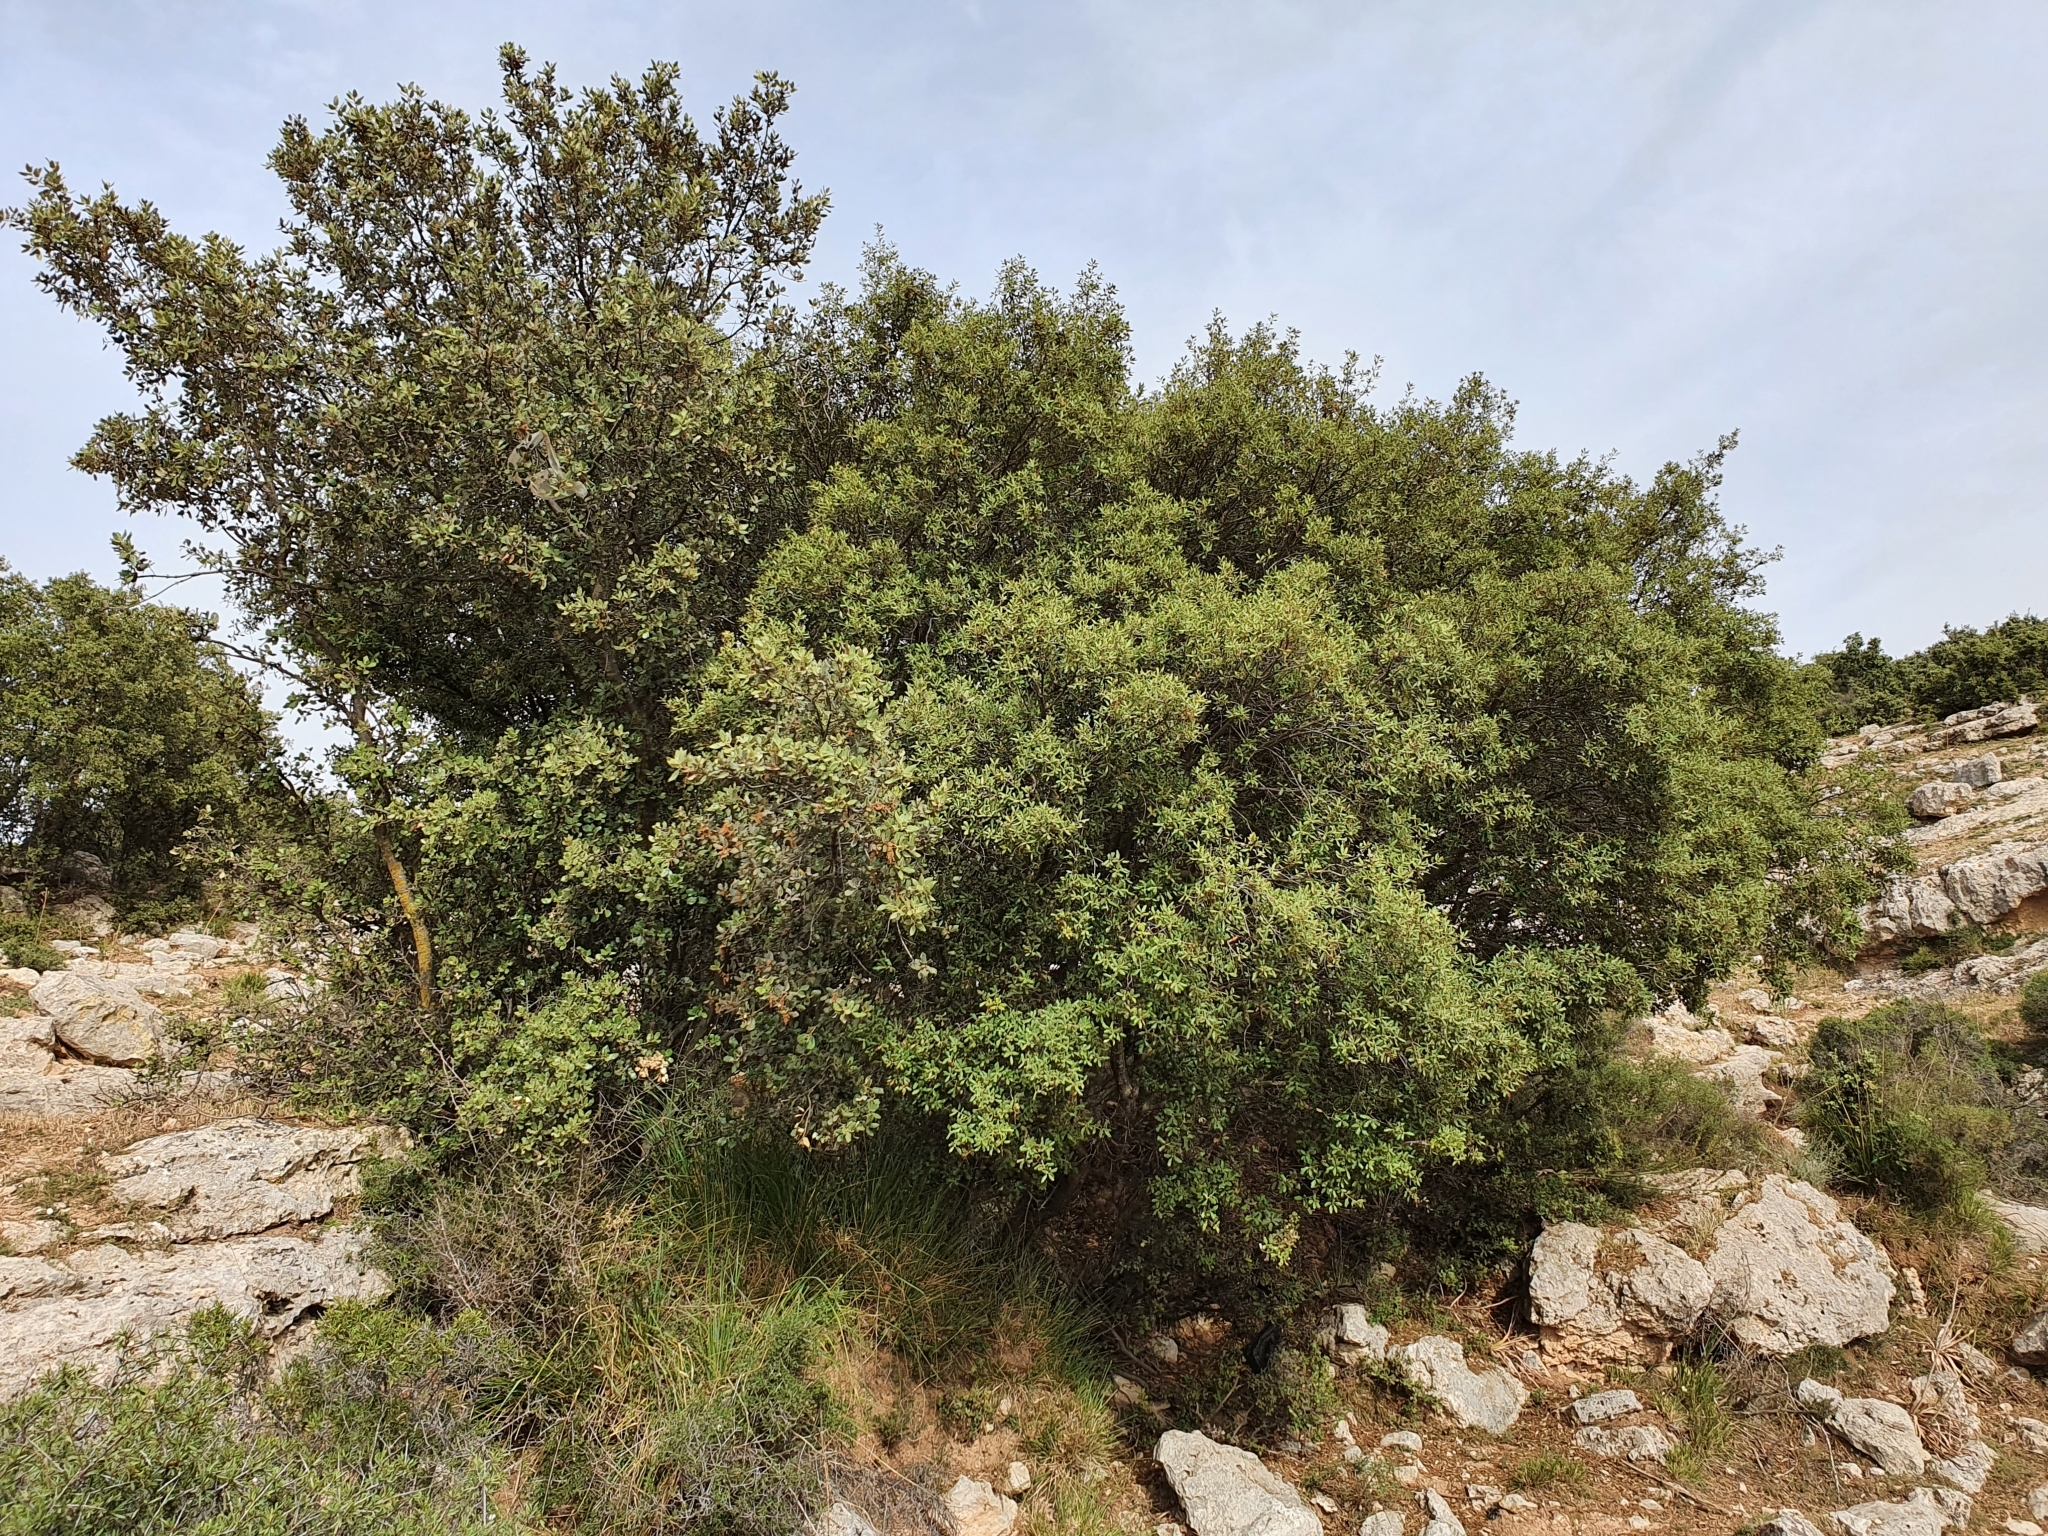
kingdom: Plantae
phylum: Tracheophyta
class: Magnoliopsida
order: Fagales
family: Fagaceae
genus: Quercus
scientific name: Quercus rotundifolia
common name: Holm oak
